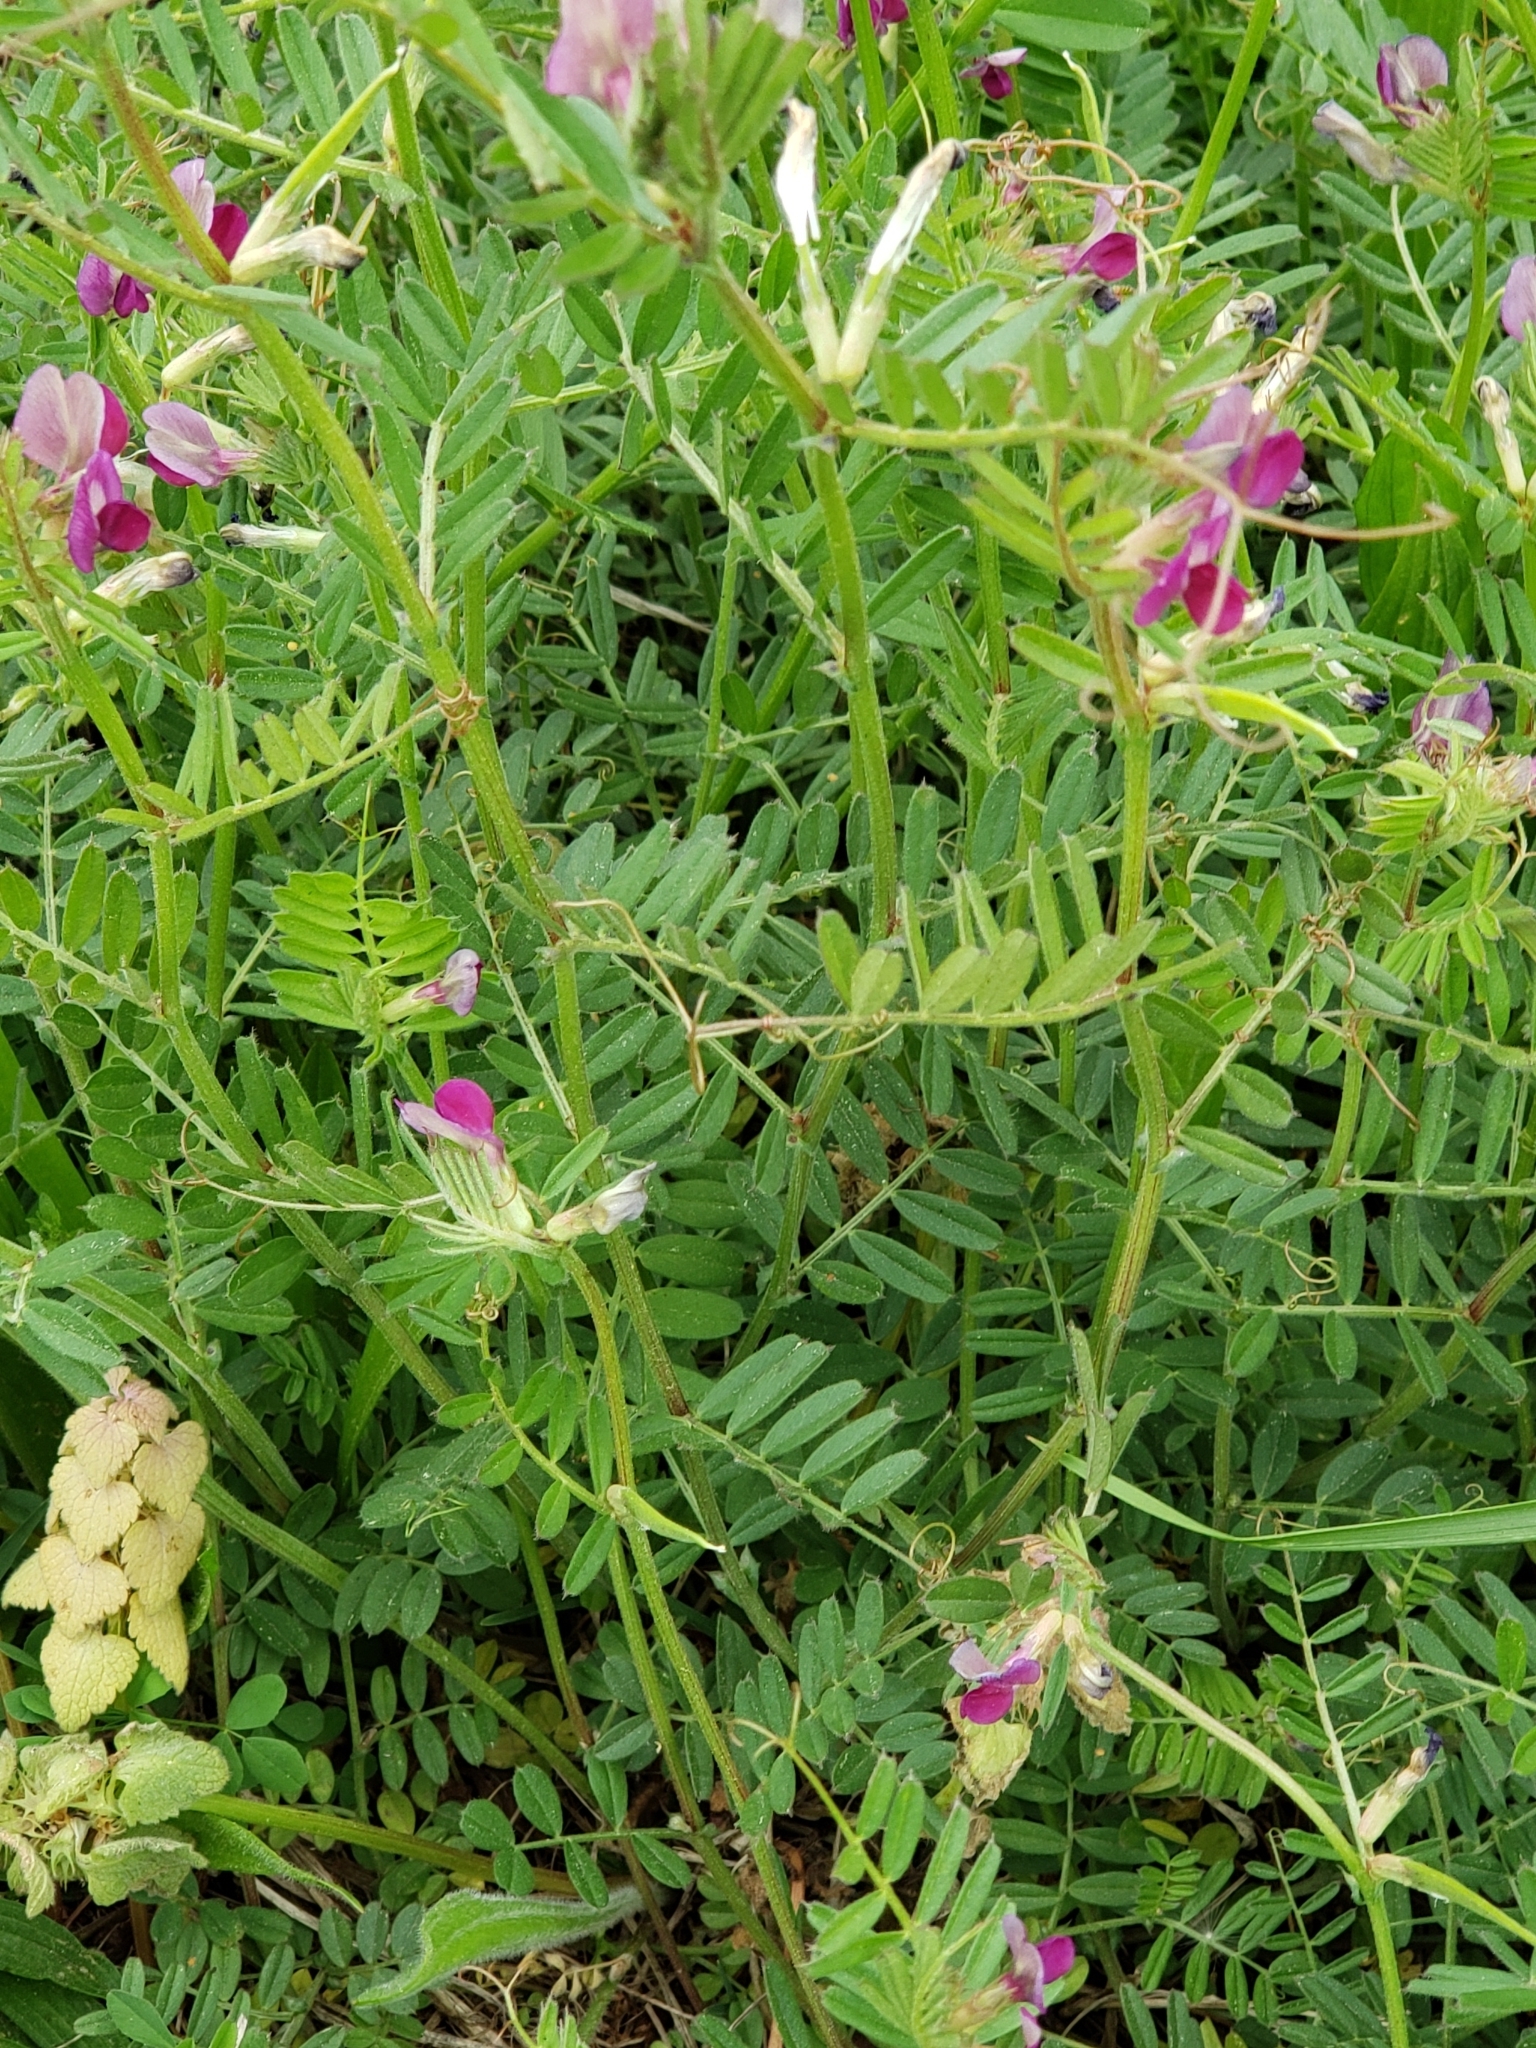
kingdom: Plantae
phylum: Tracheophyta
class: Magnoliopsida
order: Fabales
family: Fabaceae
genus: Vicia
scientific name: Vicia sativa
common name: Garden vetch
